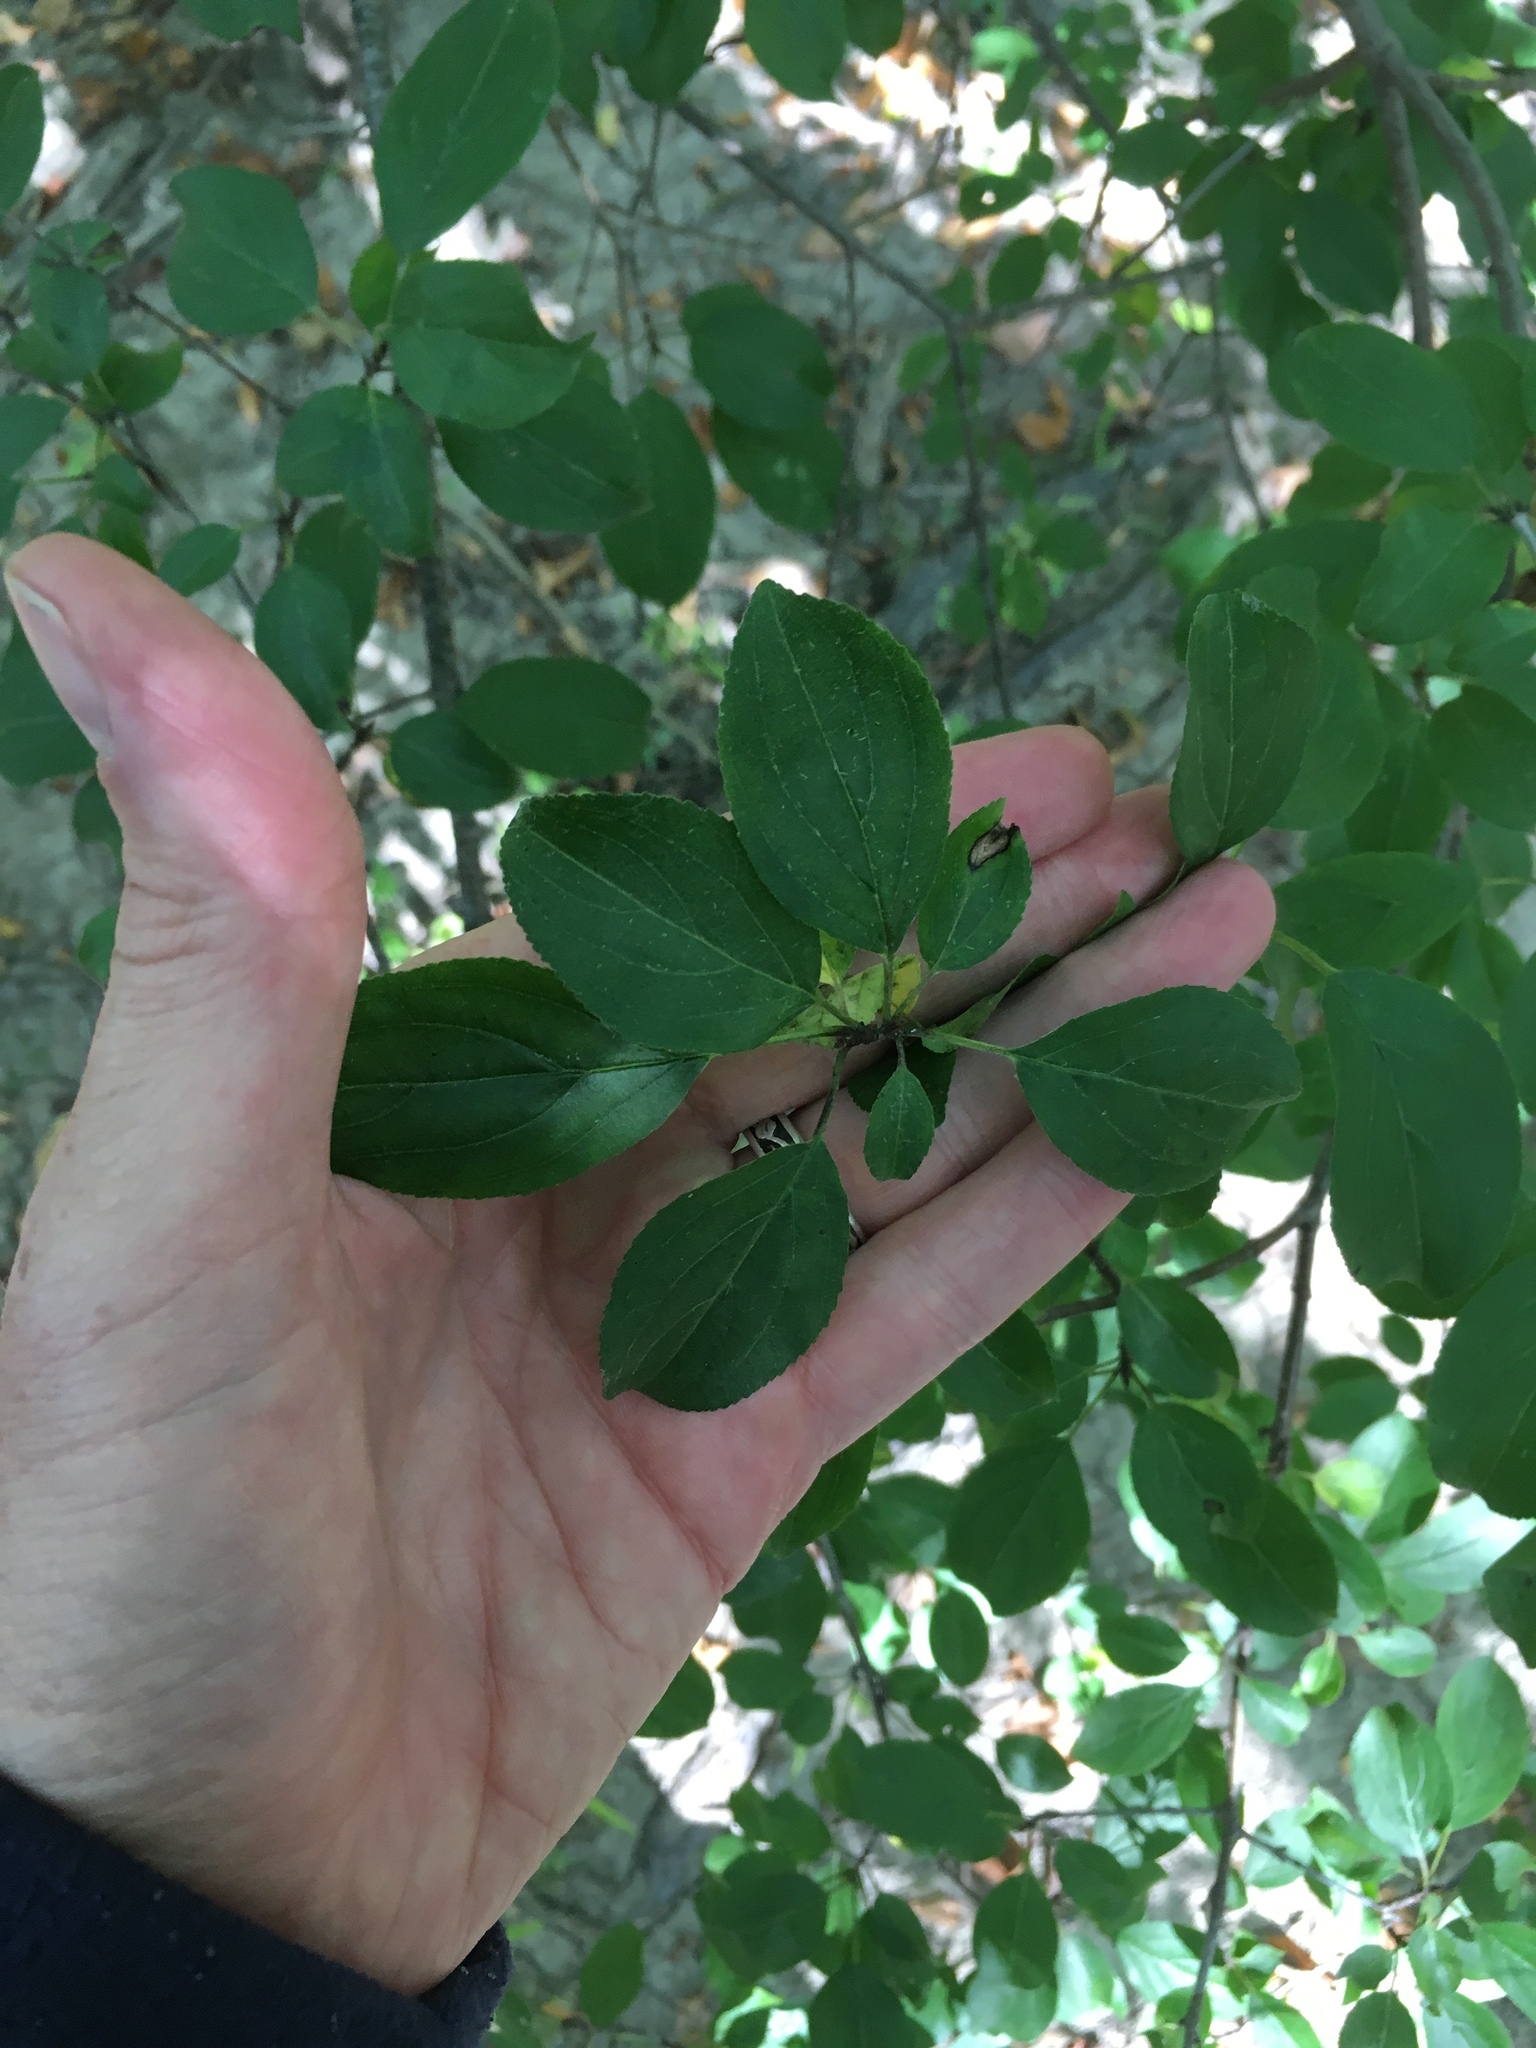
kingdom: Plantae
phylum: Tracheophyta
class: Magnoliopsida
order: Rosales
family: Rhamnaceae
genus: Rhamnus
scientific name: Rhamnus cathartica
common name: Common buckthorn
